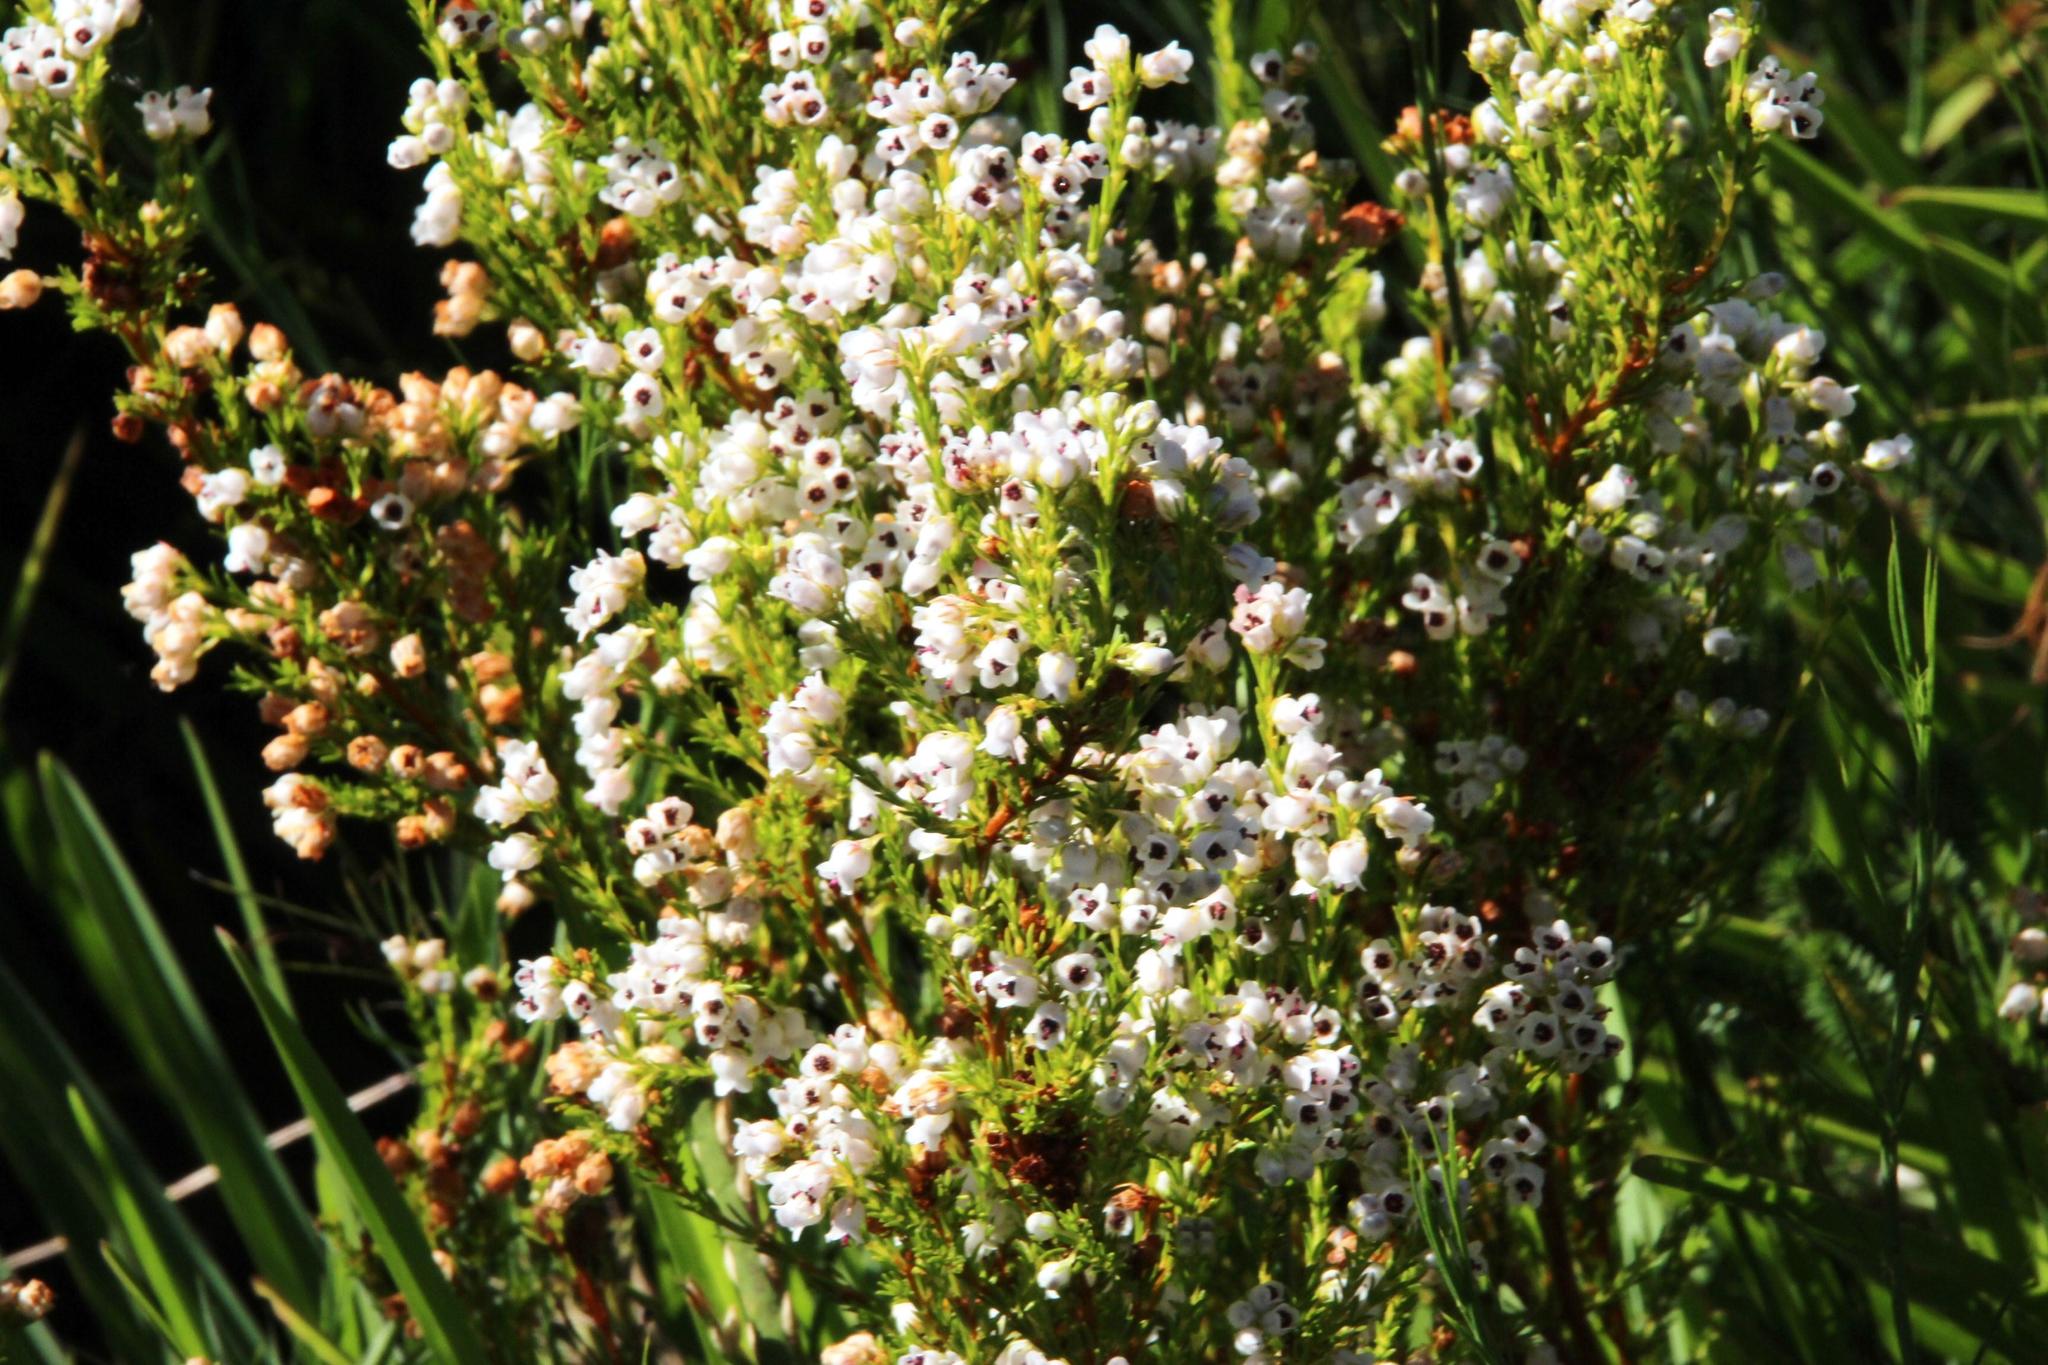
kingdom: Plantae
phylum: Tracheophyta
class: Magnoliopsida
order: Ericales
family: Ericaceae
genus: Erica
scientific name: Erica margaritacea
